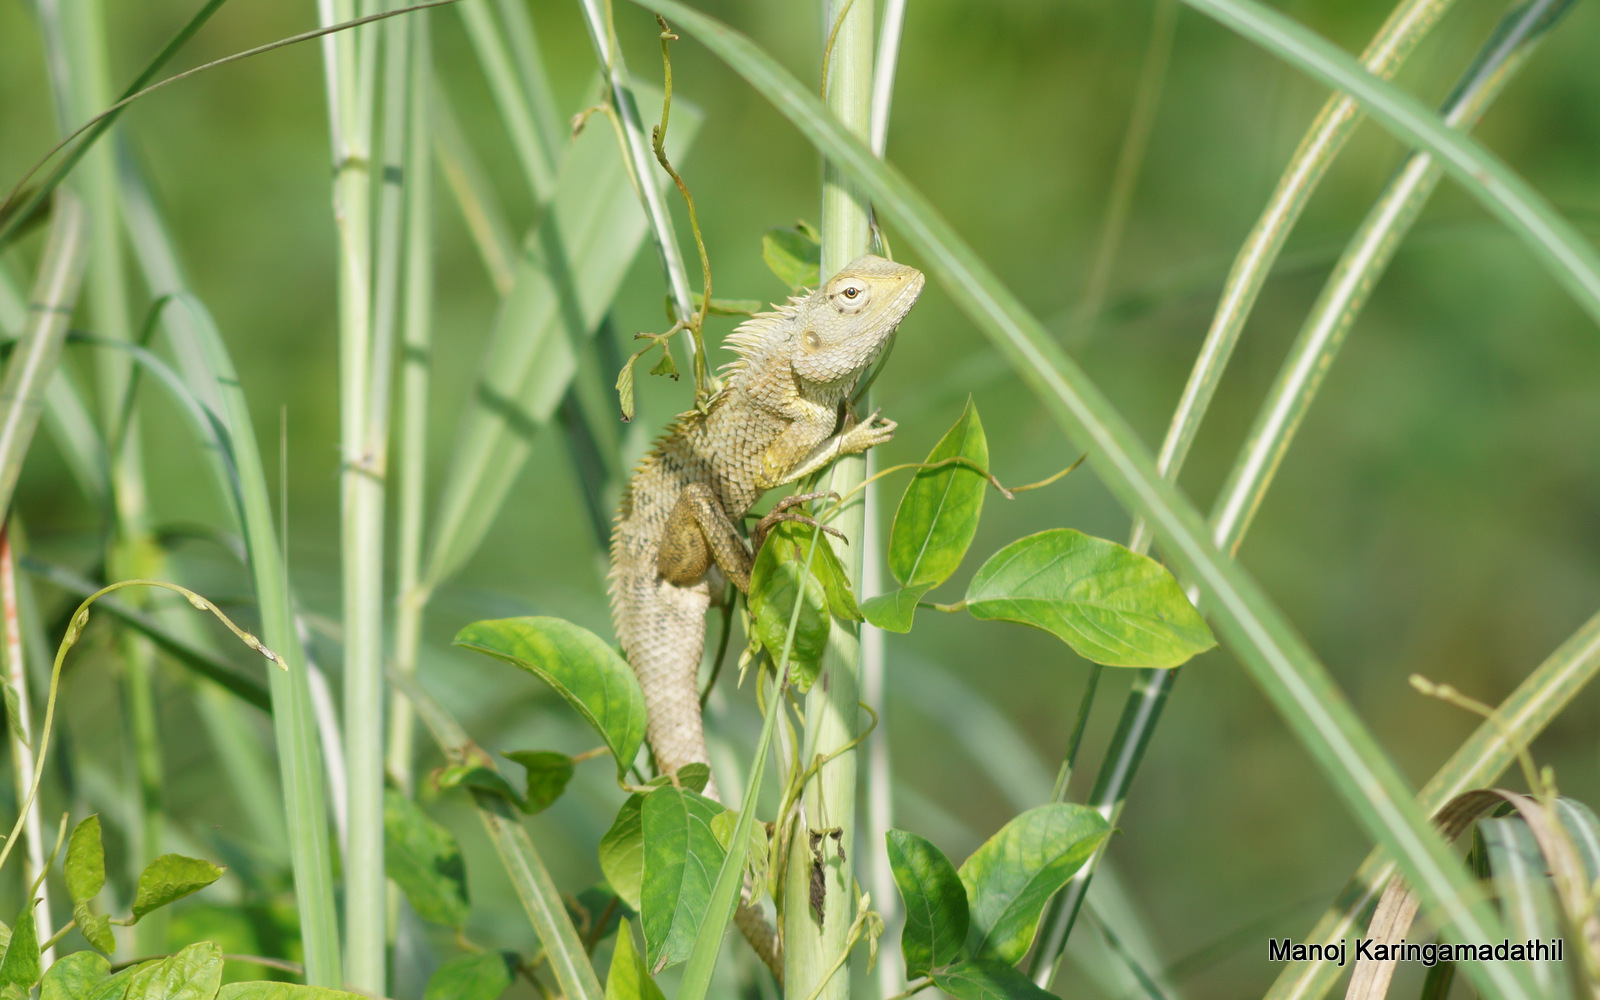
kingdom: Animalia
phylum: Chordata
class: Squamata
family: Agamidae
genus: Calotes
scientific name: Calotes versicolor
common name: Oriental garden lizard
